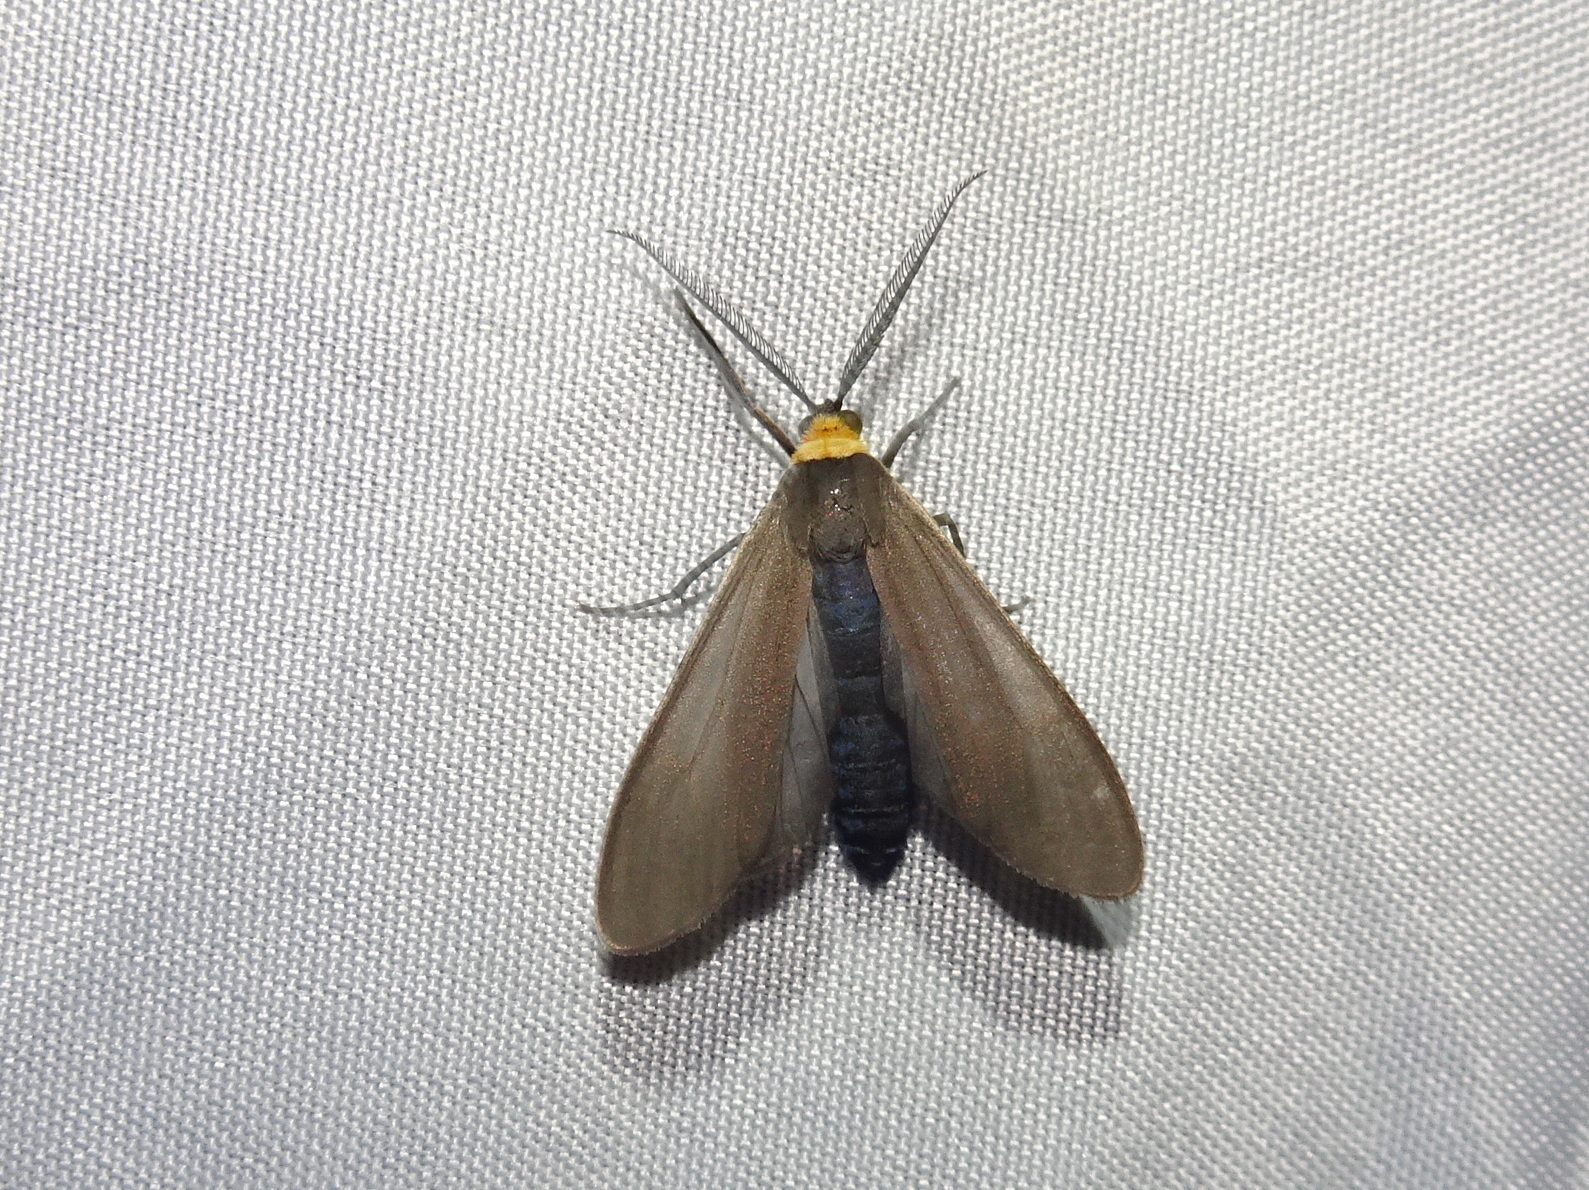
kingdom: Animalia
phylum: Arthropoda
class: Insecta
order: Lepidoptera
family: Erebidae
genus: Cisseps
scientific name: Cisseps fulvicollis
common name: Yellow-collared scape moth
